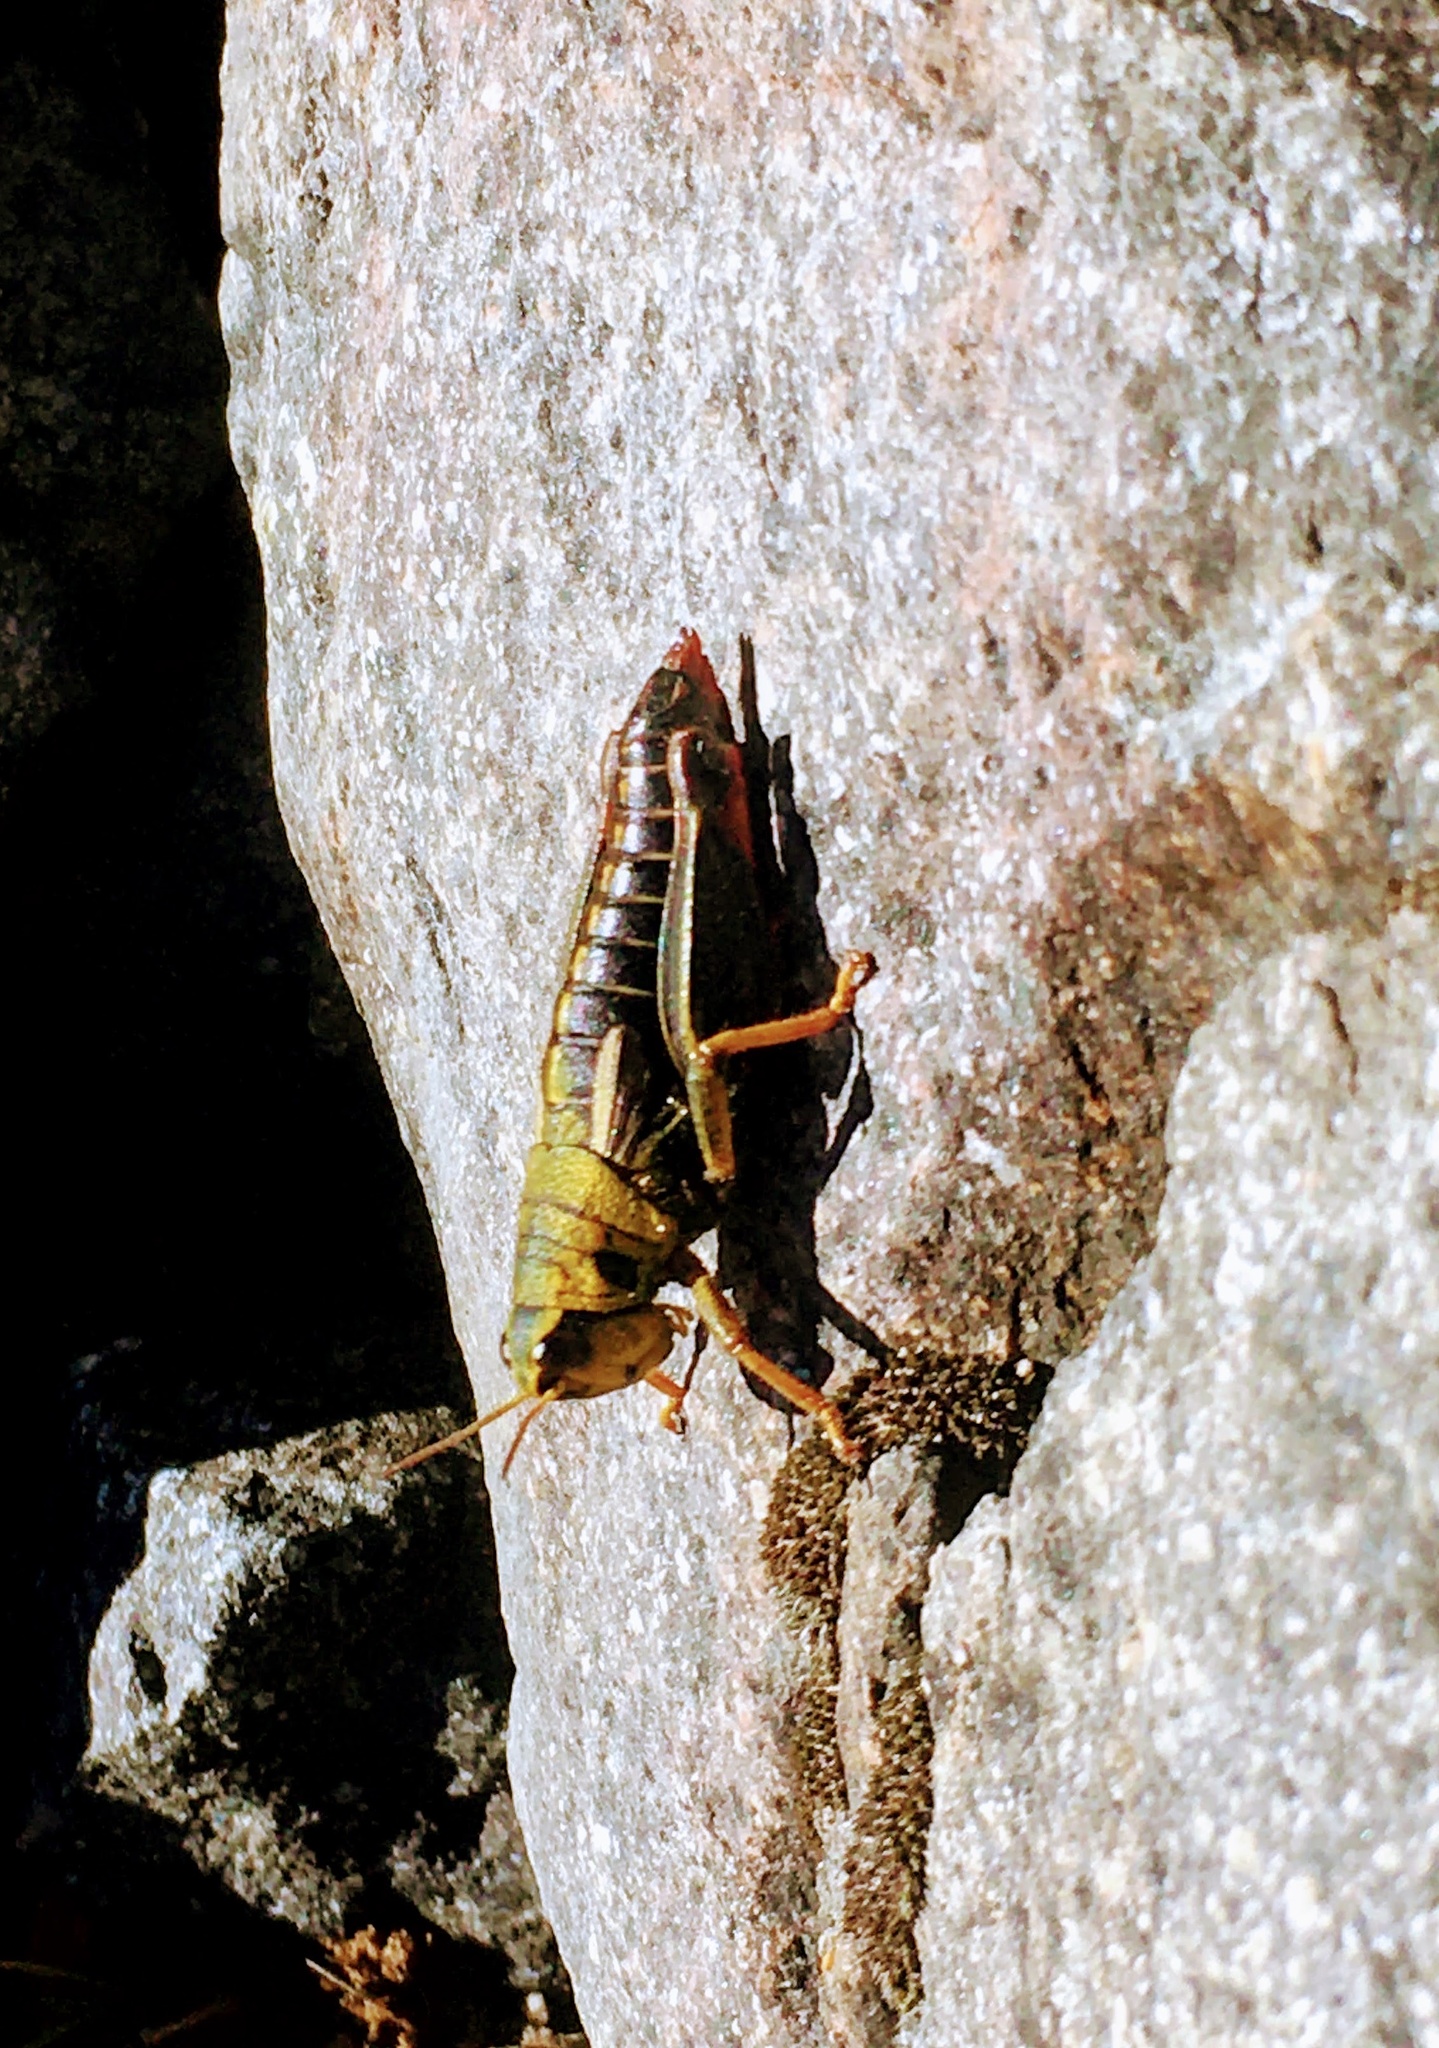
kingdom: Animalia
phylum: Arthropoda
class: Insecta
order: Orthoptera
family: Acrididae
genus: Nahuelia
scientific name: Nahuelia rubriventris
